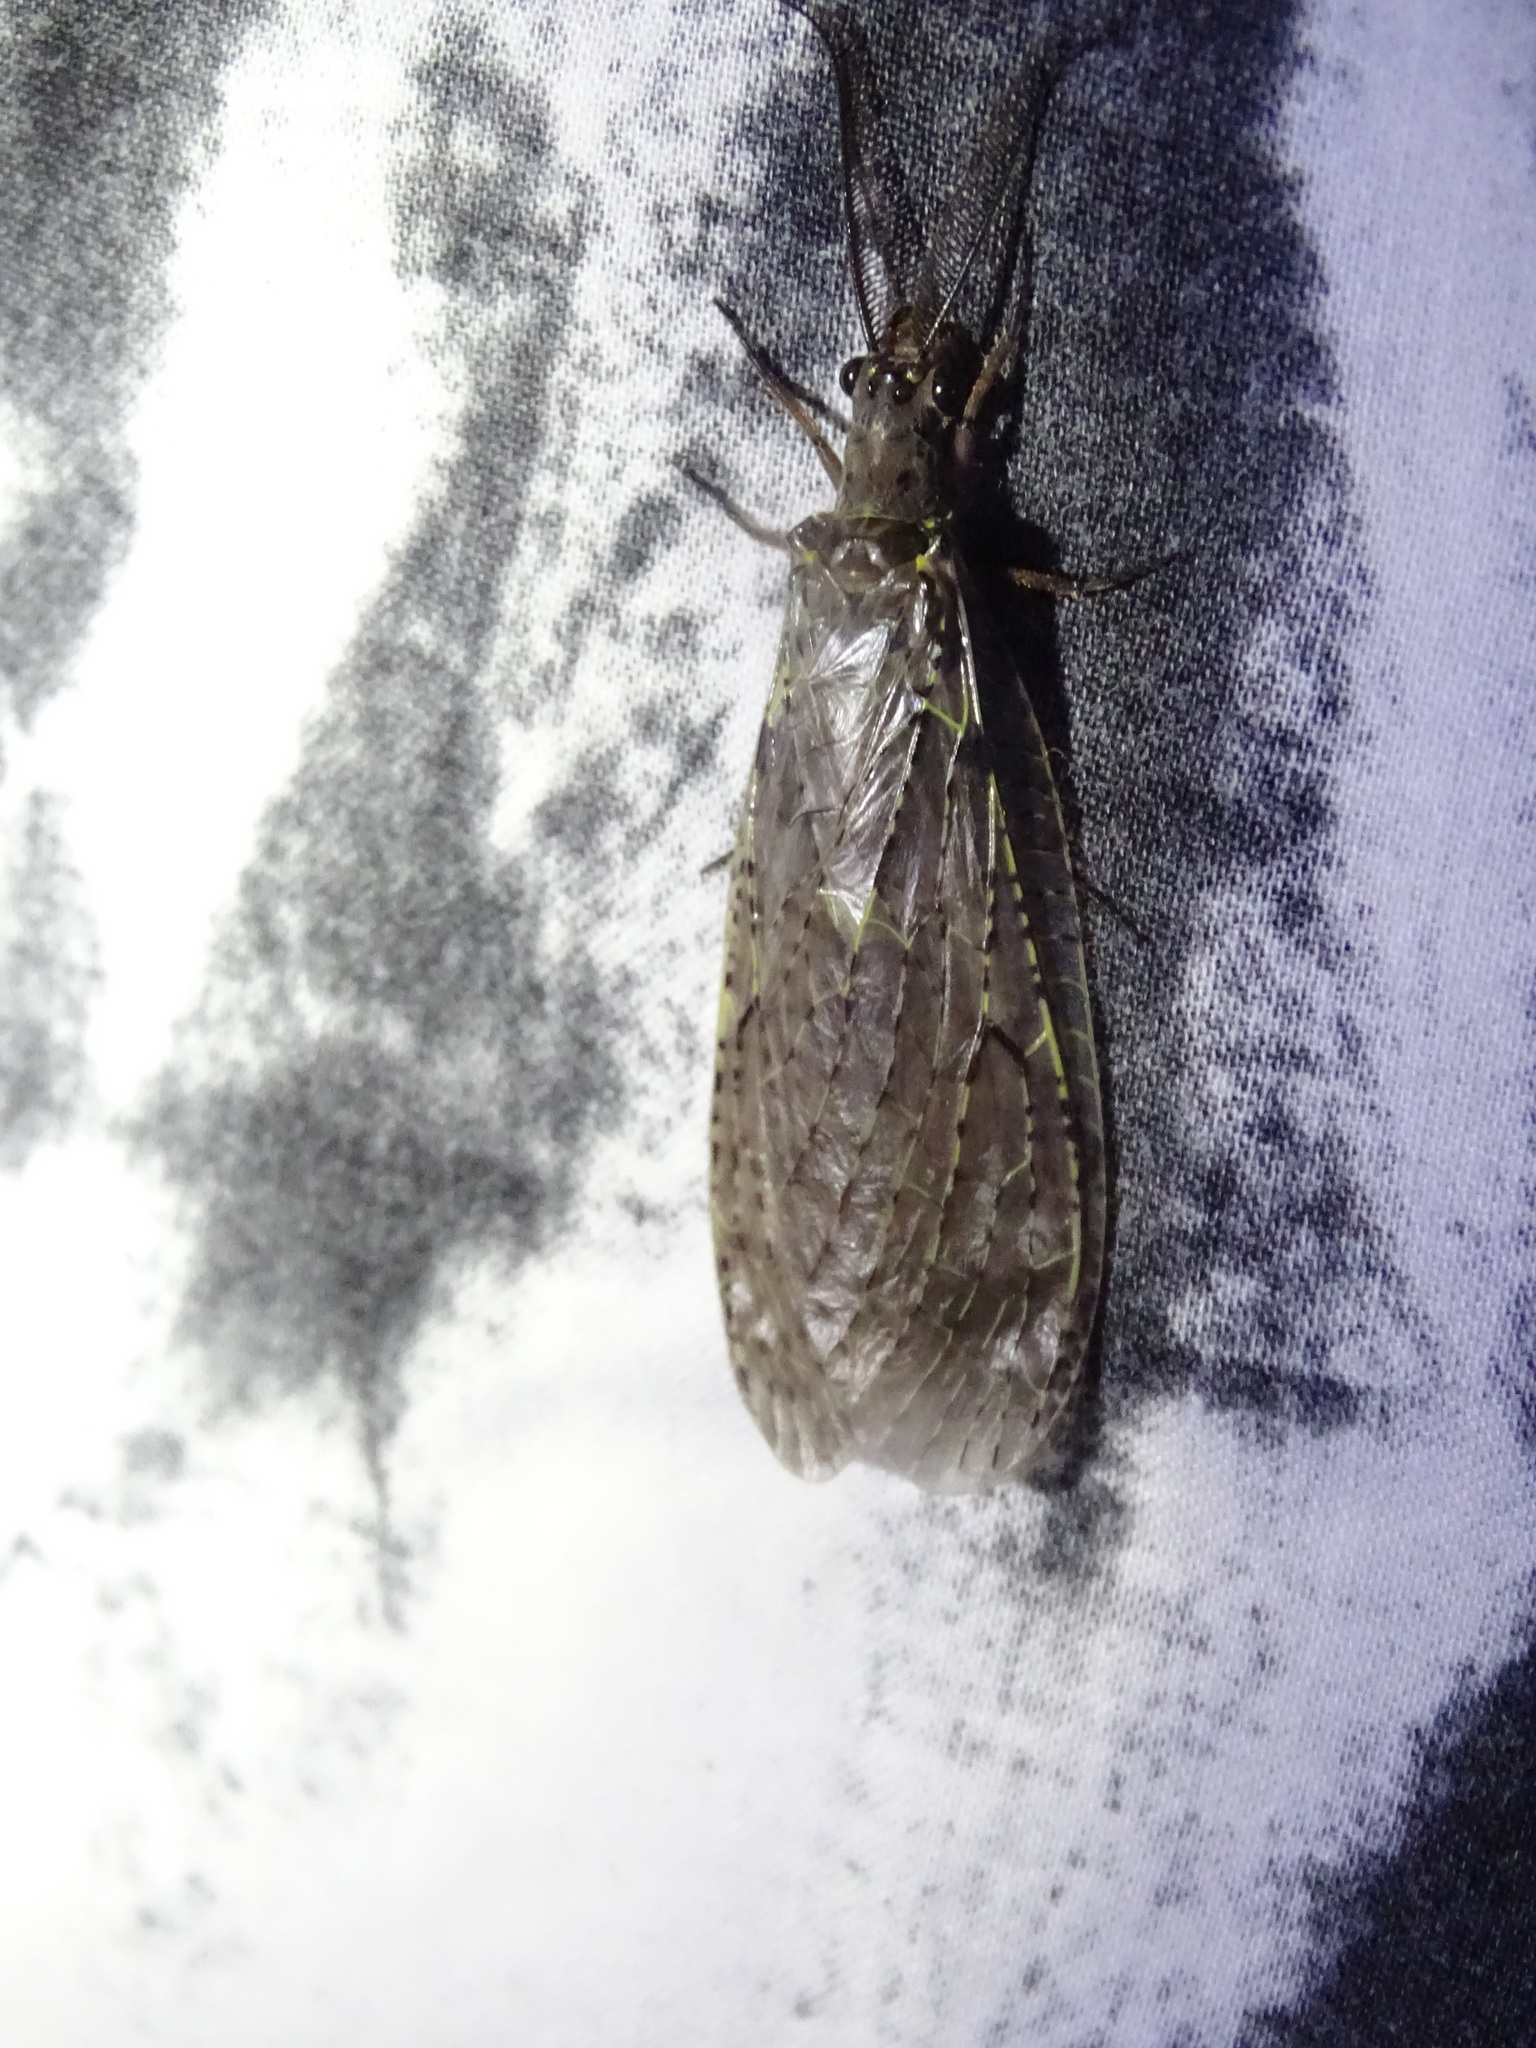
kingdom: Animalia
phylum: Arthropoda
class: Insecta
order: Megaloptera
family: Corydalidae
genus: Chauliodes
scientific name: Chauliodes rastricornis
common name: Spring fishfly
